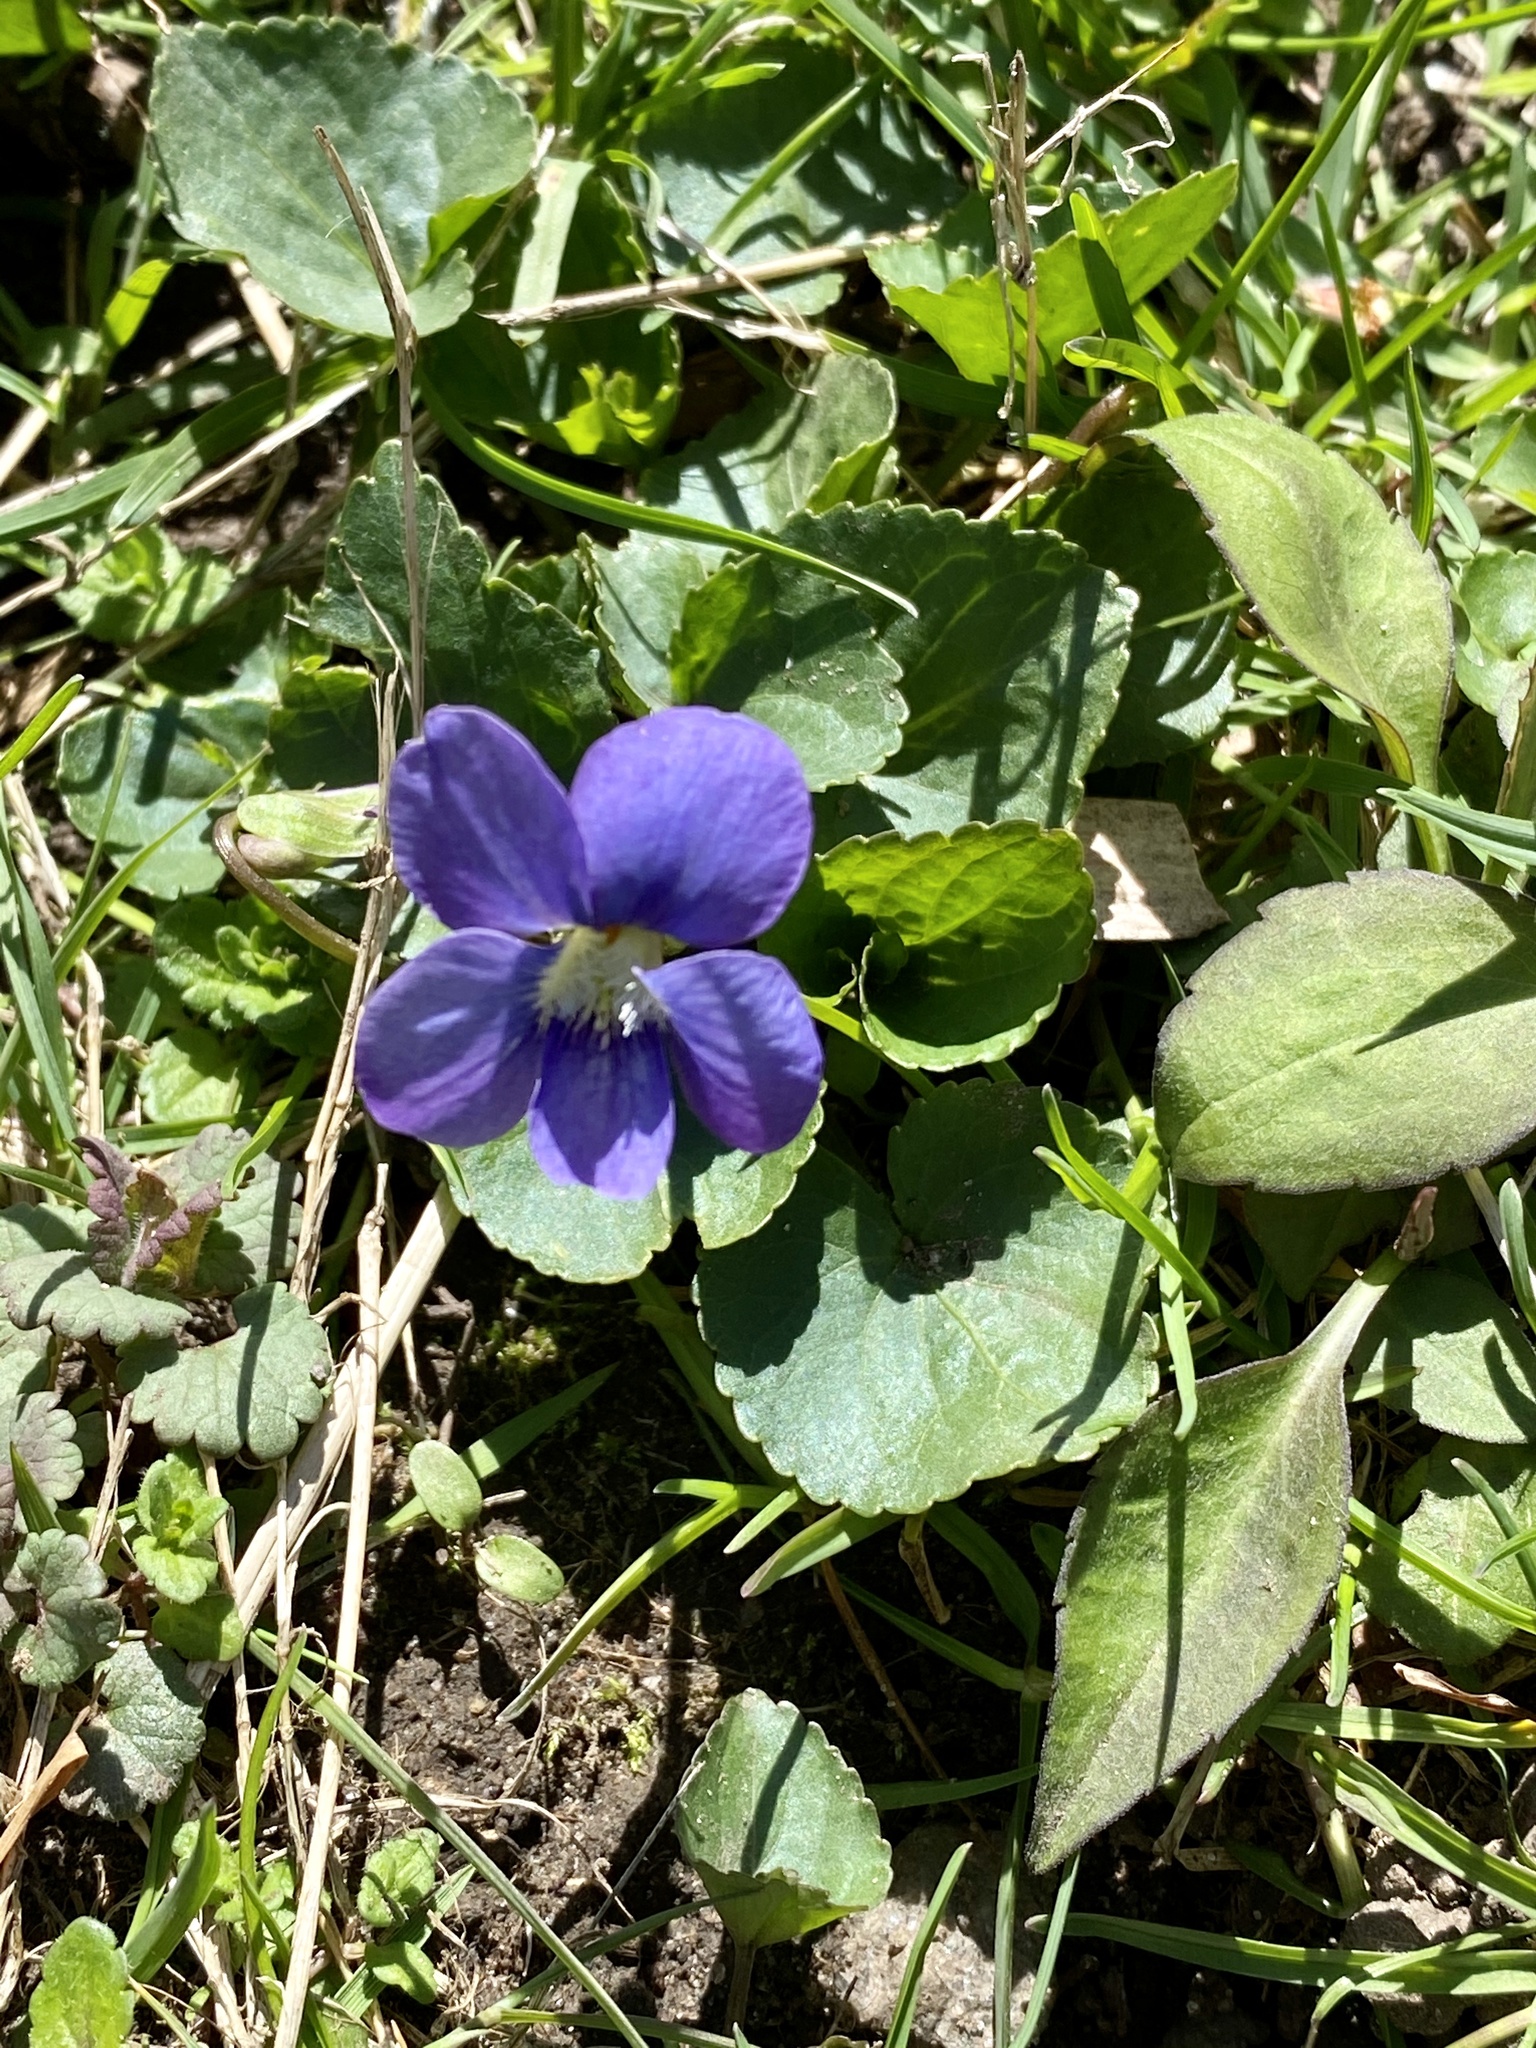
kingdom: Plantae
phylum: Tracheophyta
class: Magnoliopsida
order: Malpighiales
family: Violaceae
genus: Viola
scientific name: Viola sororia
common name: Dooryard violet
